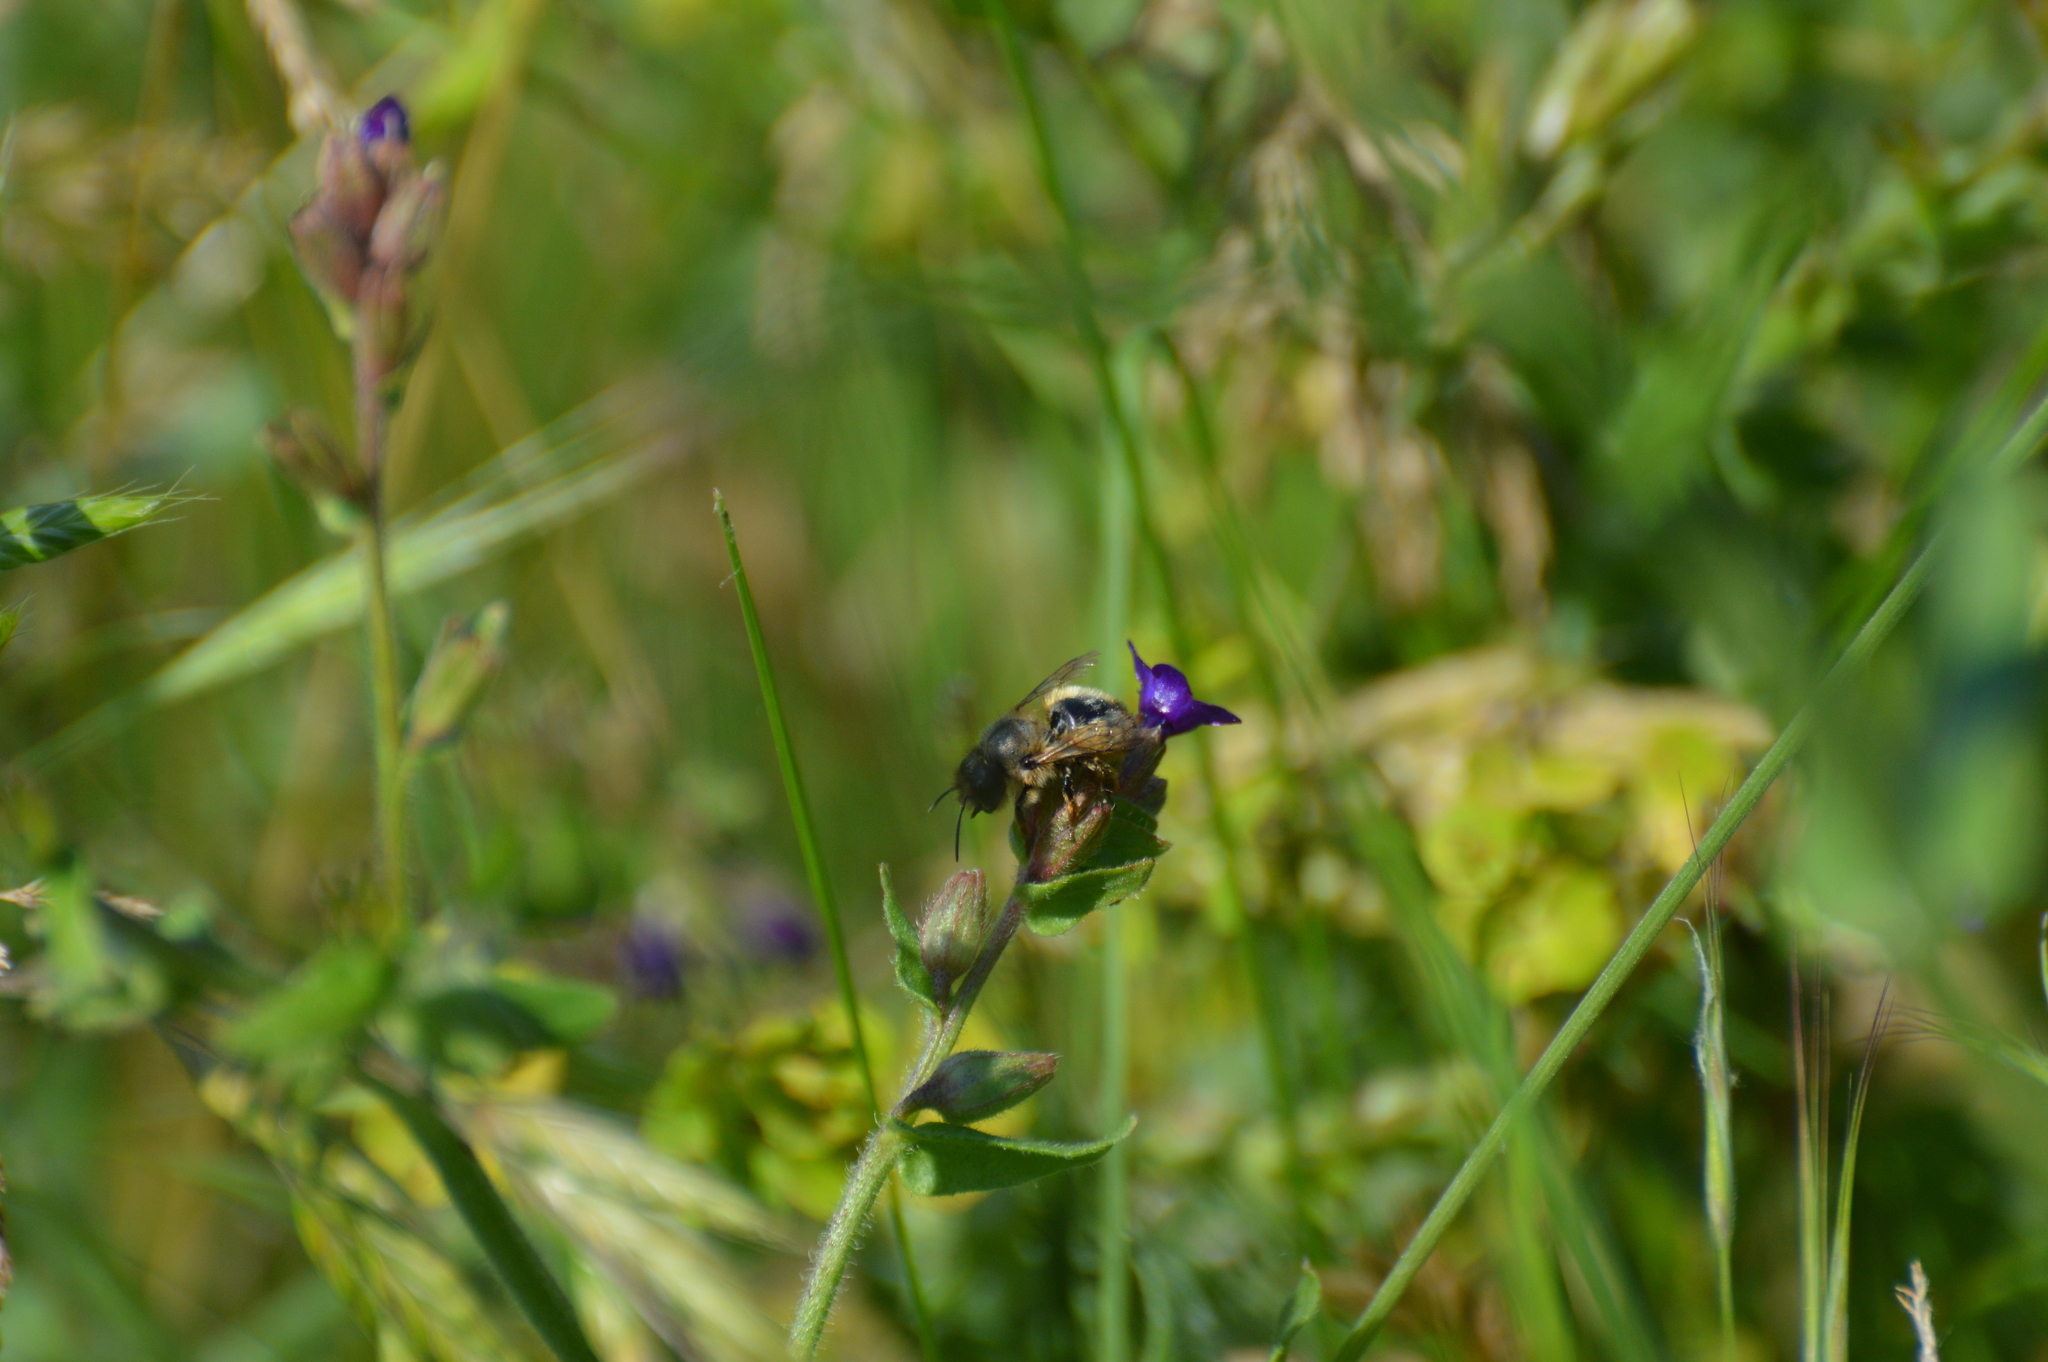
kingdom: Animalia
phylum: Arthropoda
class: Insecta
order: Hymenoptera
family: Megachilidae
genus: Osmia
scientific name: Osmia bicornis
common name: Red mason bee
